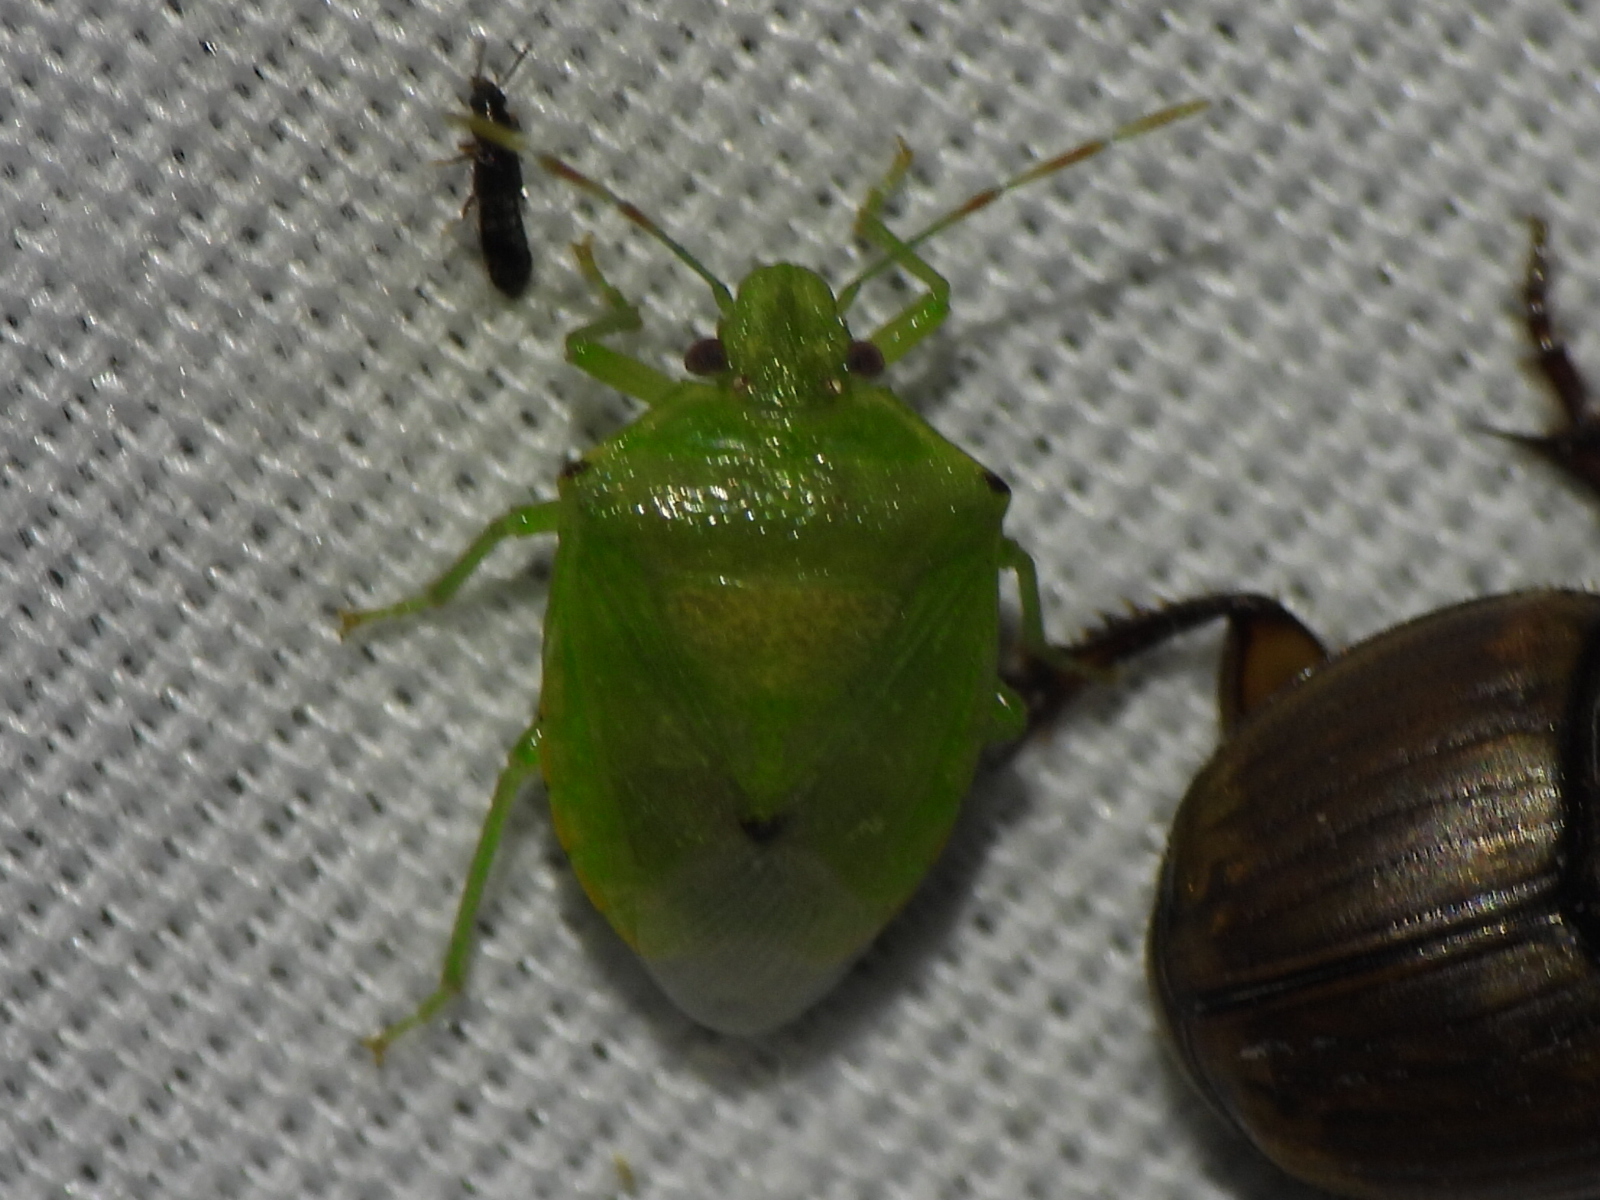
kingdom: Animalia
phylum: Arthropoda
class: Insecta
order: Hemiptera
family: Pentatomidae
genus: Thyanta
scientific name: Thyanta maculata
